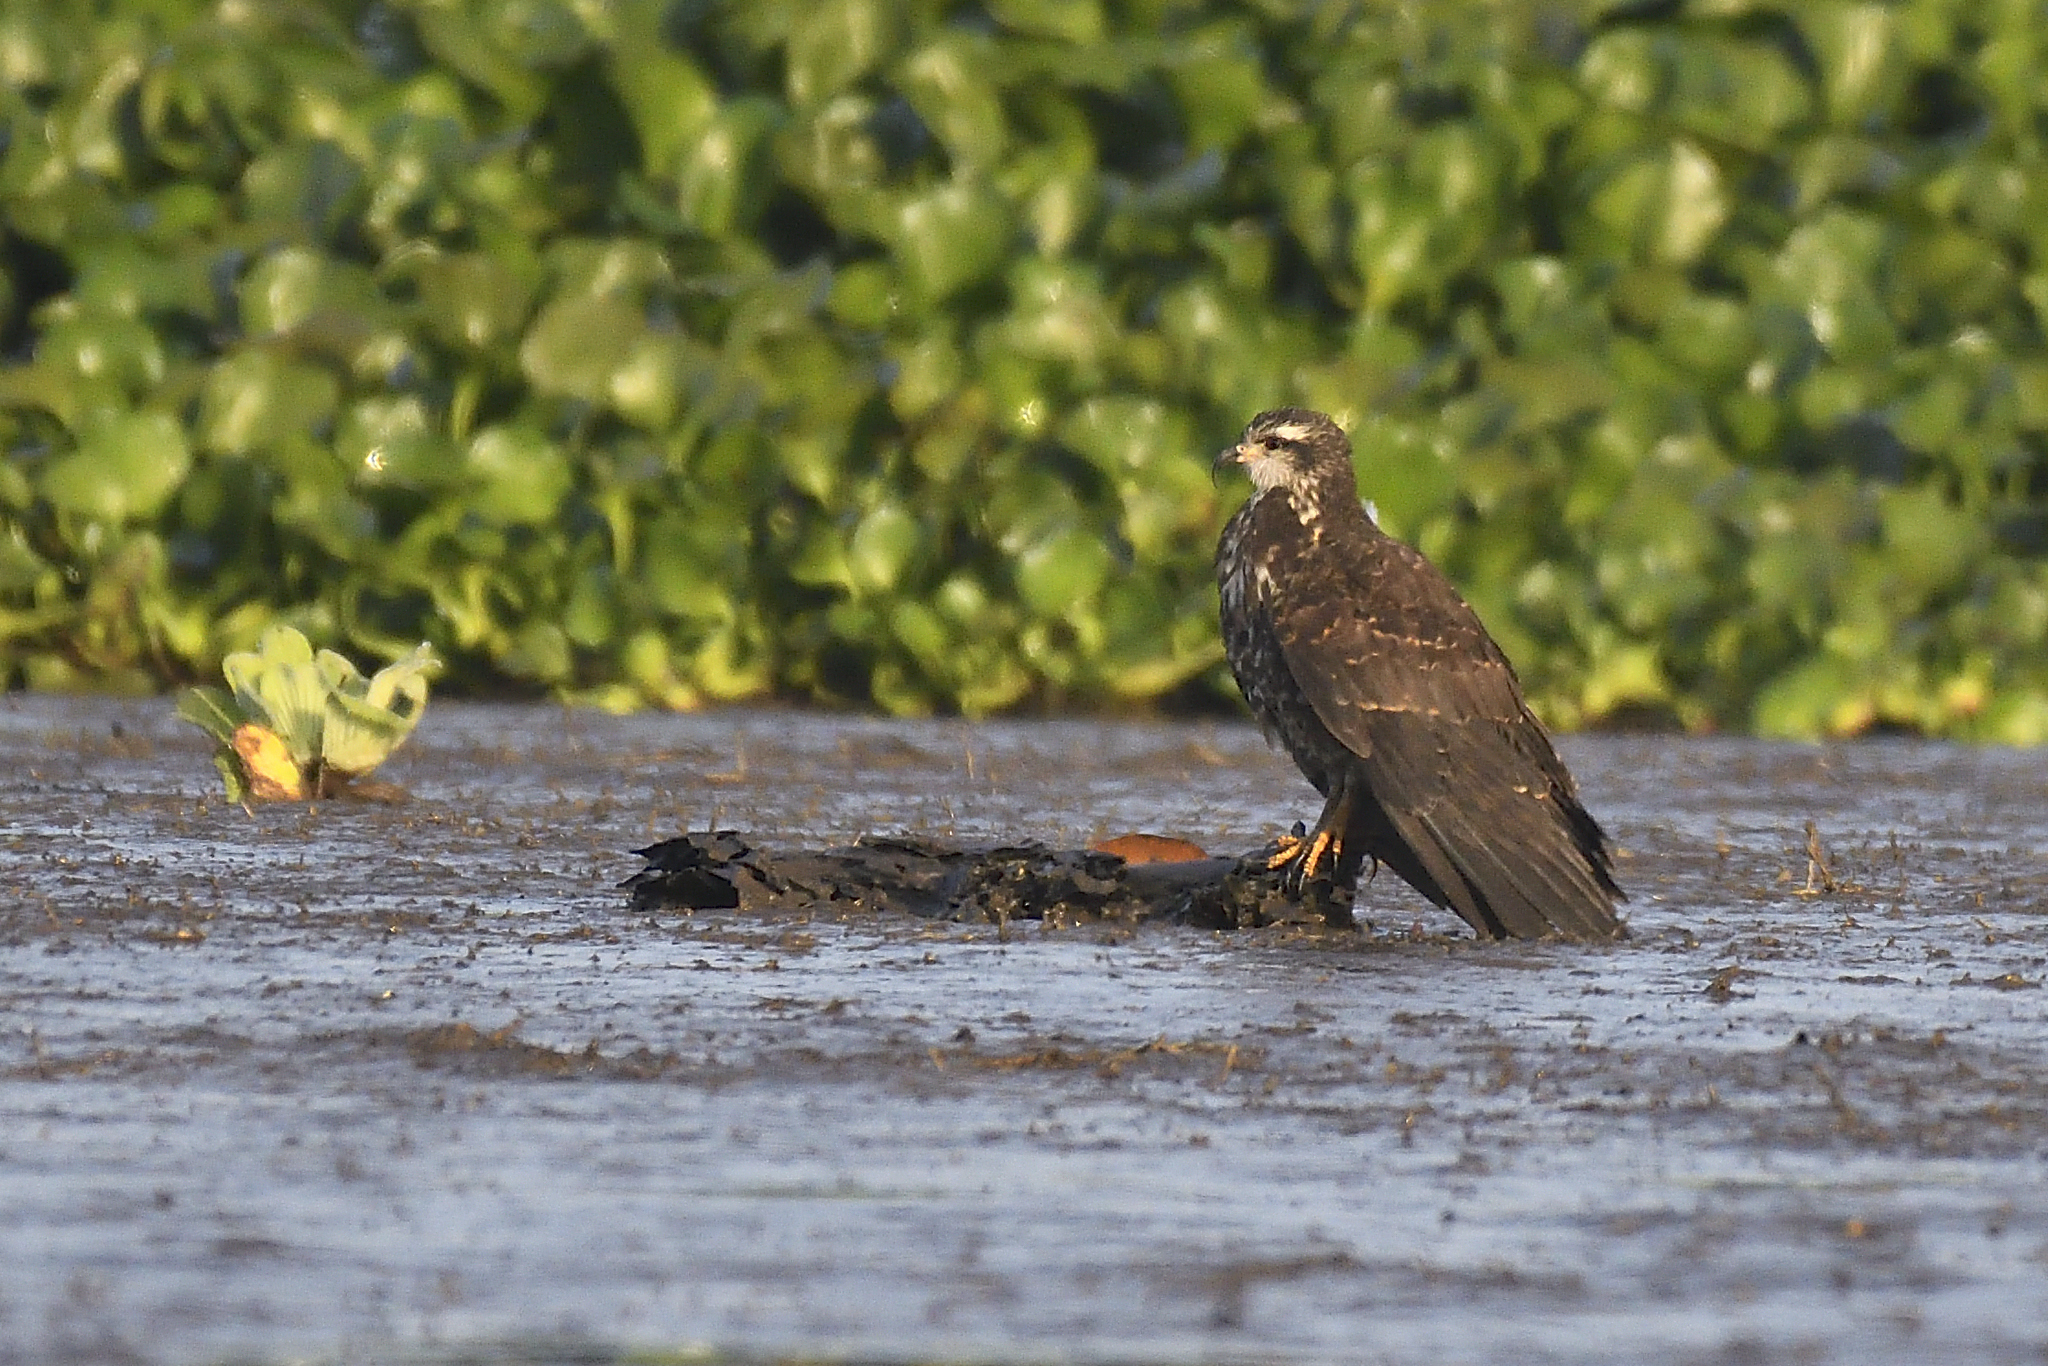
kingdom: Animalia
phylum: Chordata
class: Aves
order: Accipitriformes
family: Accipitridae
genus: Rostrhamus
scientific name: Rostrhamus sociabilis
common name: Snail kite
